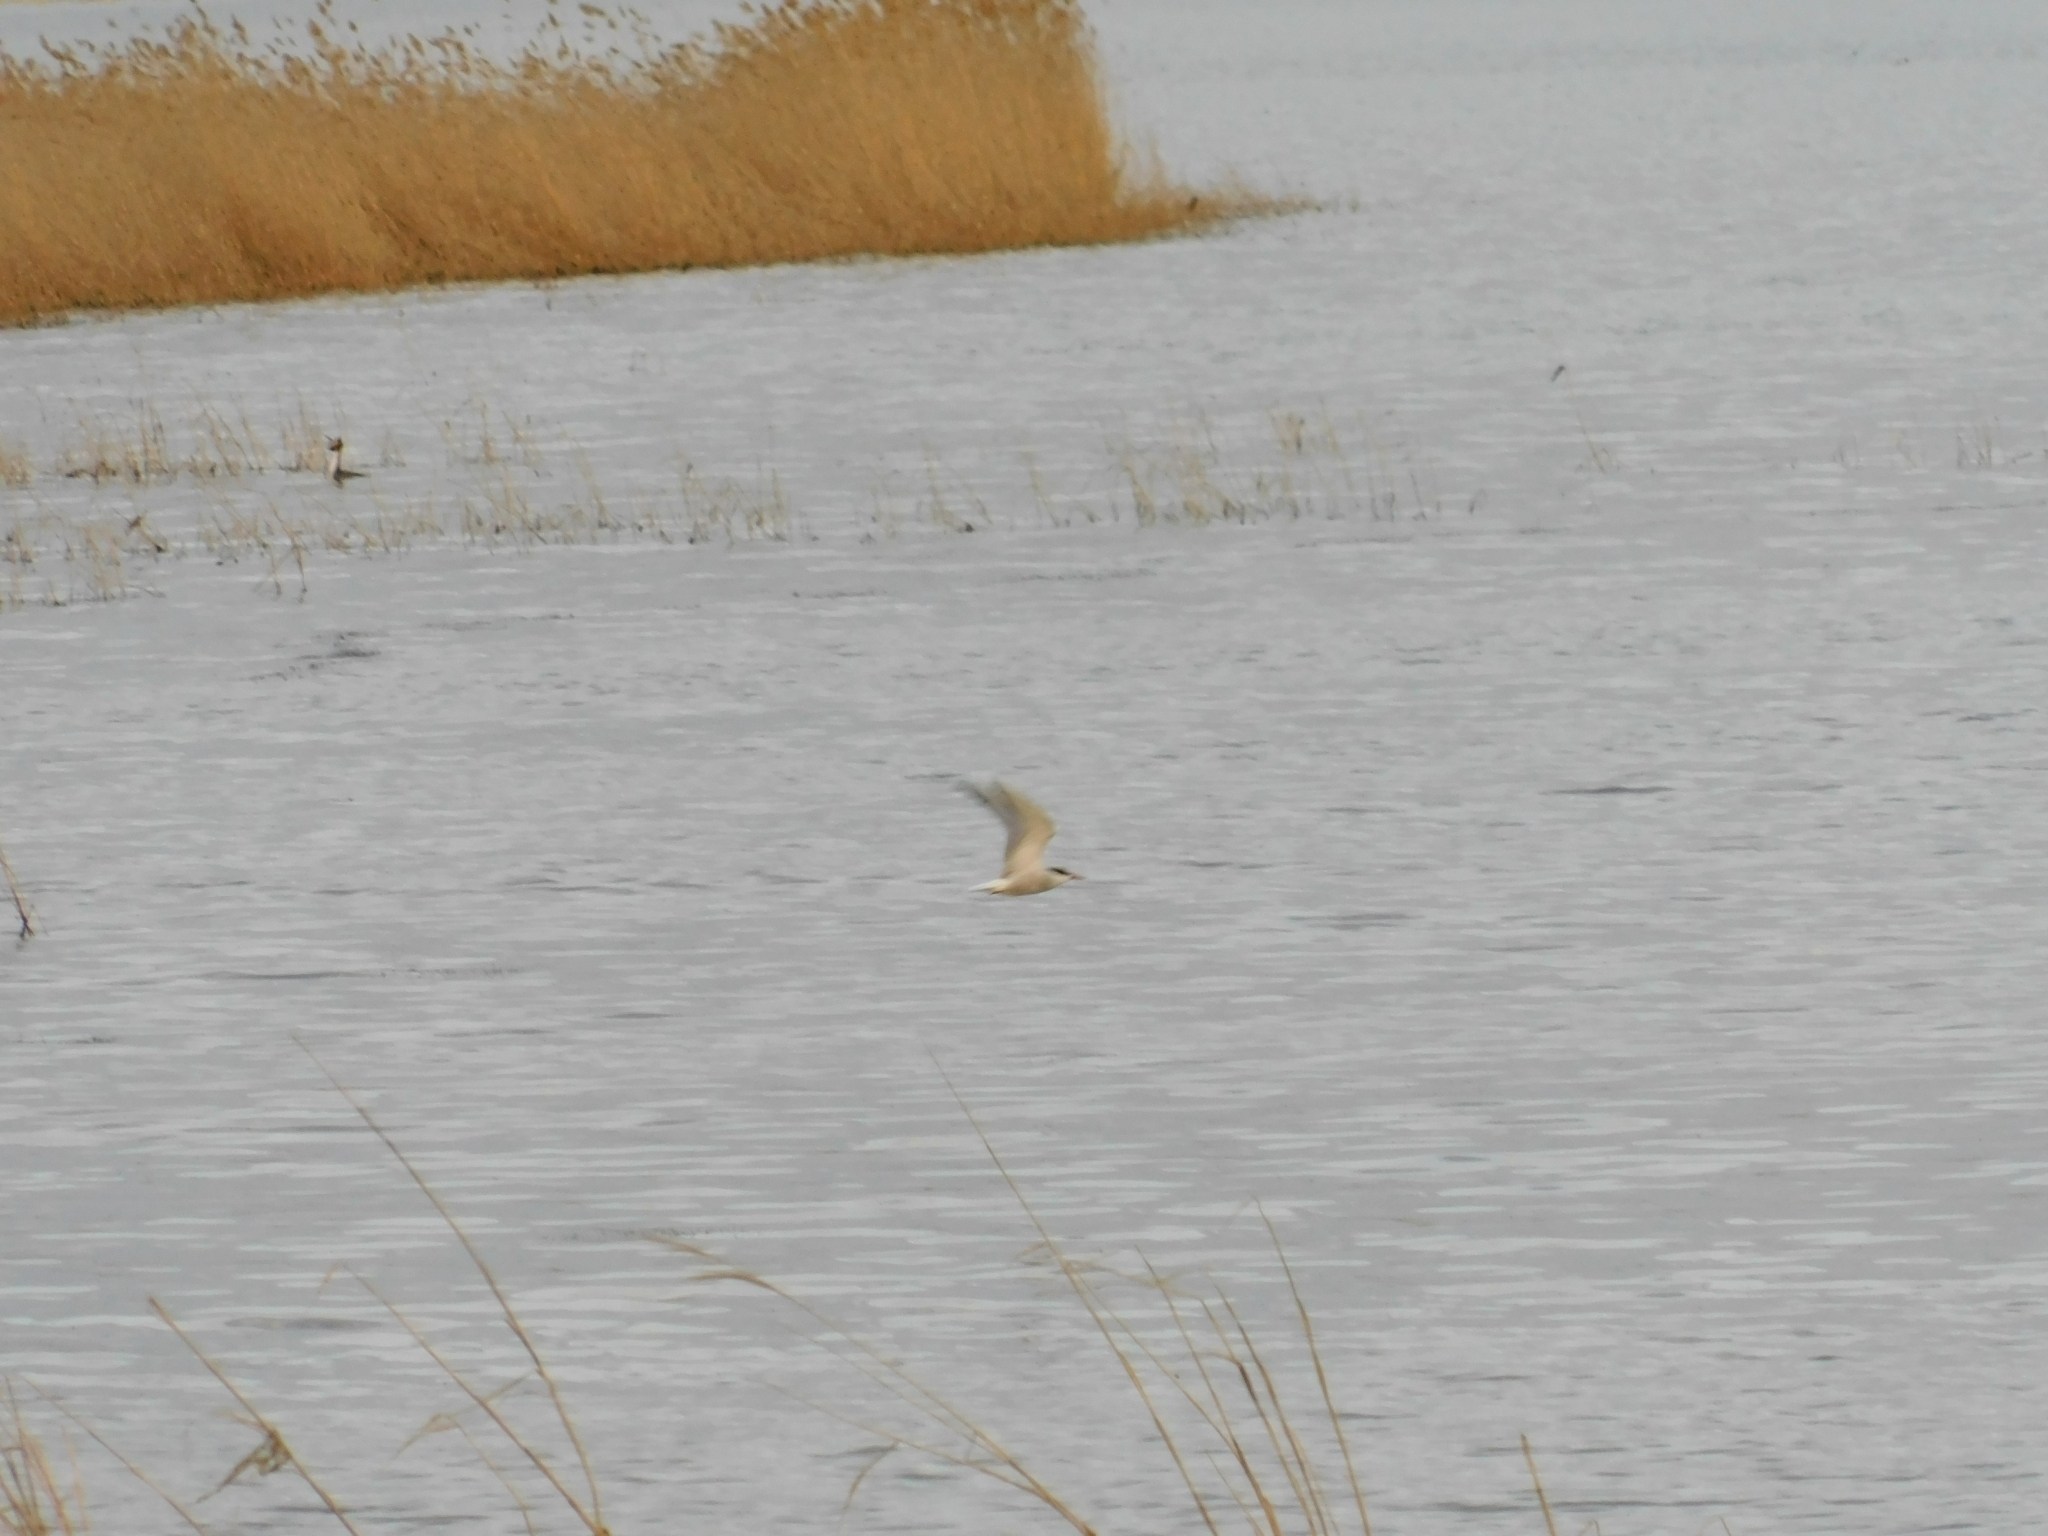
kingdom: Animalia
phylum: Chordata
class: Aves
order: Charadriiformes
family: Laridae
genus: Sterna
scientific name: Sterna hirundo
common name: Common tern
